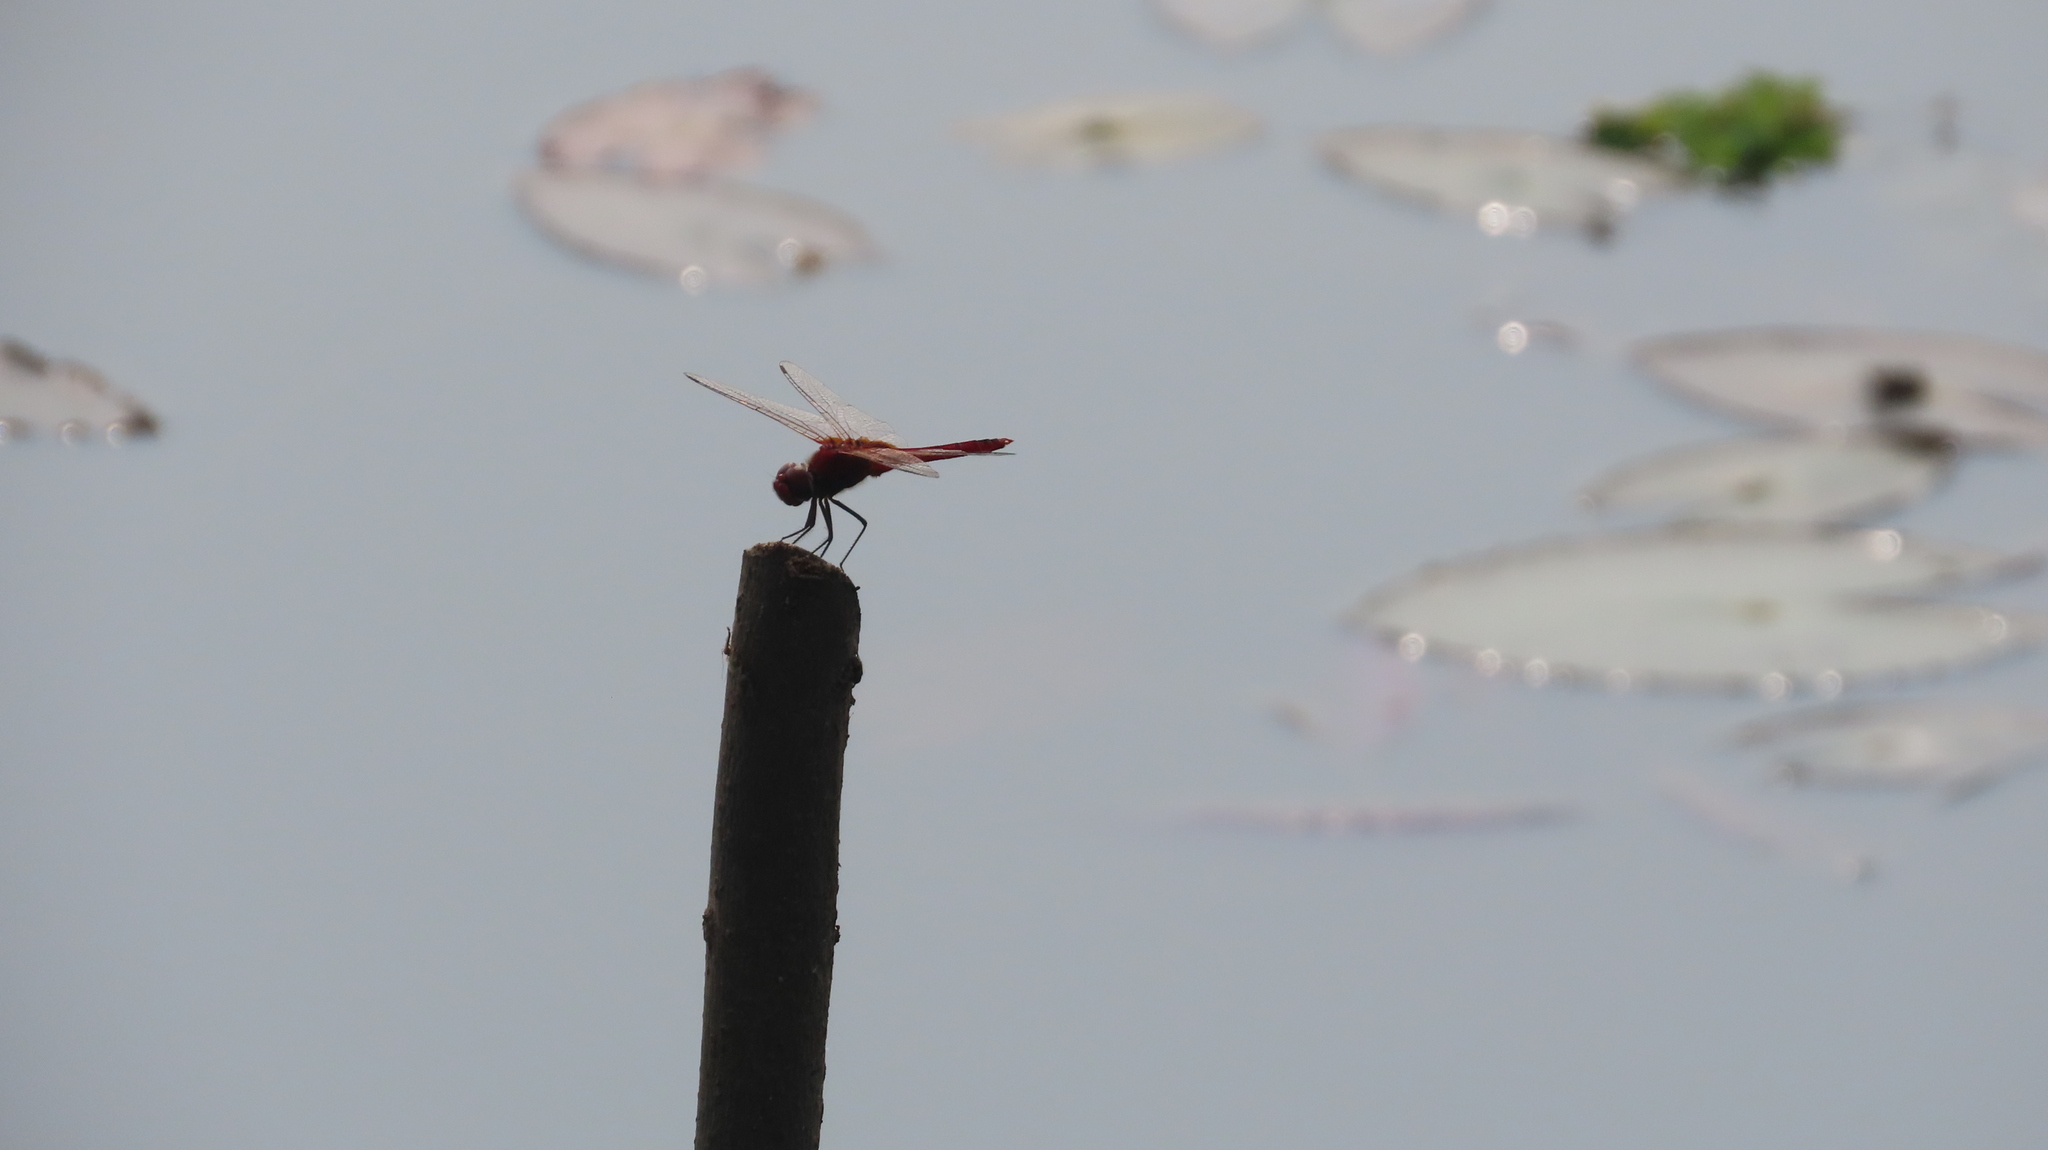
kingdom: Animalia
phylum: Arthropoda
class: Insecta
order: Odonata
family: Libellulidae
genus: Urothemis
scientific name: Urothemis signata
